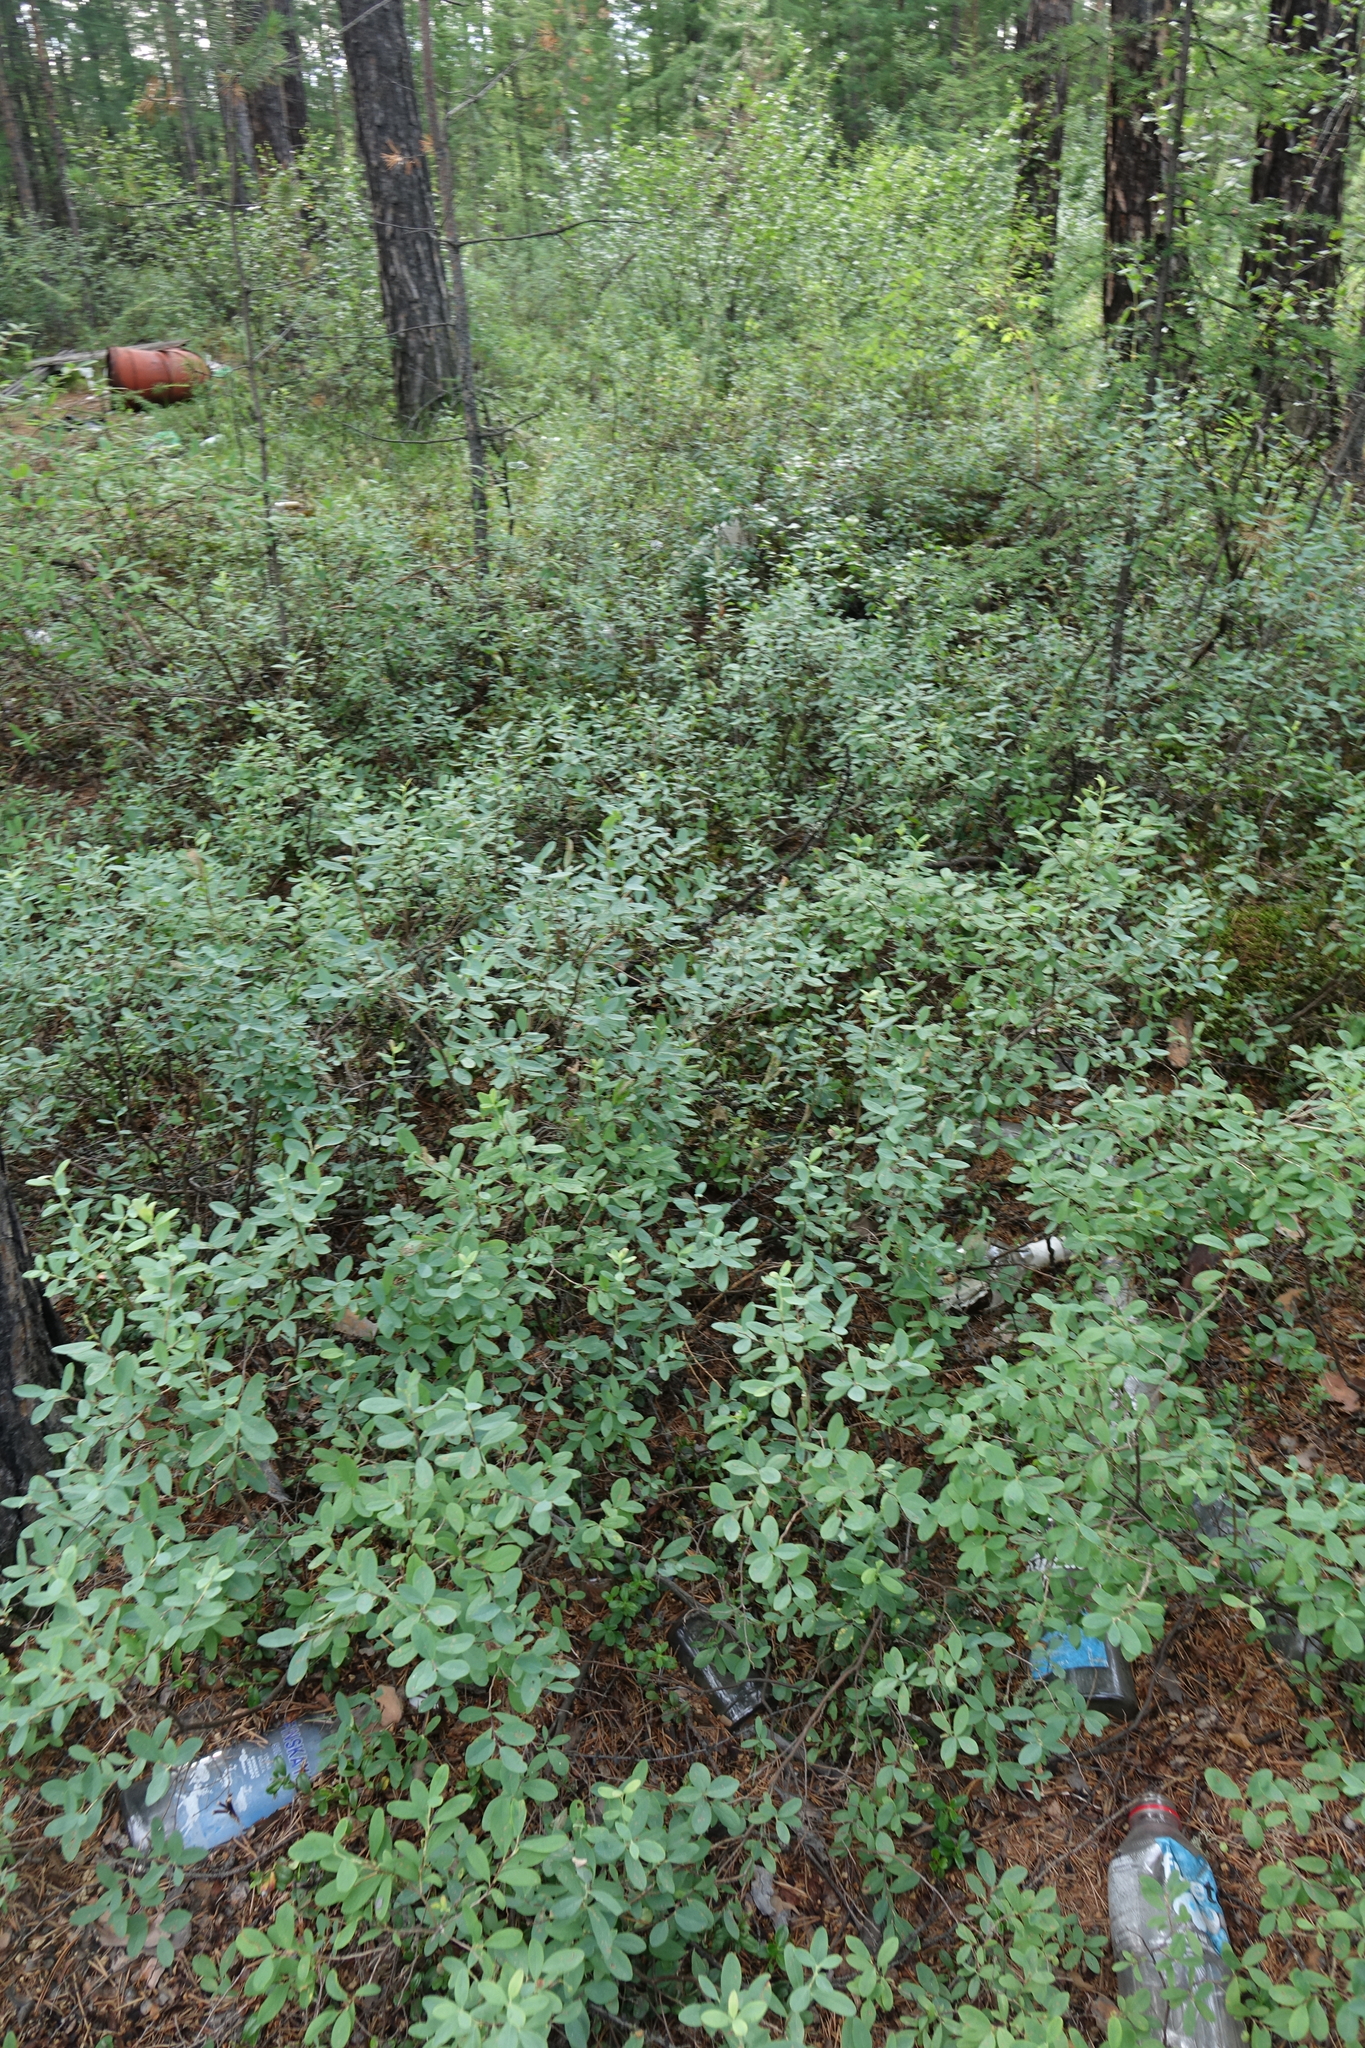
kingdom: Plantae
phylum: Tracheophyta
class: Magnoliopsida
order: Ericales
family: Ericaceae
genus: Vaccinium
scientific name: Vaccinium uliginosum
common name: Bog bilberry
